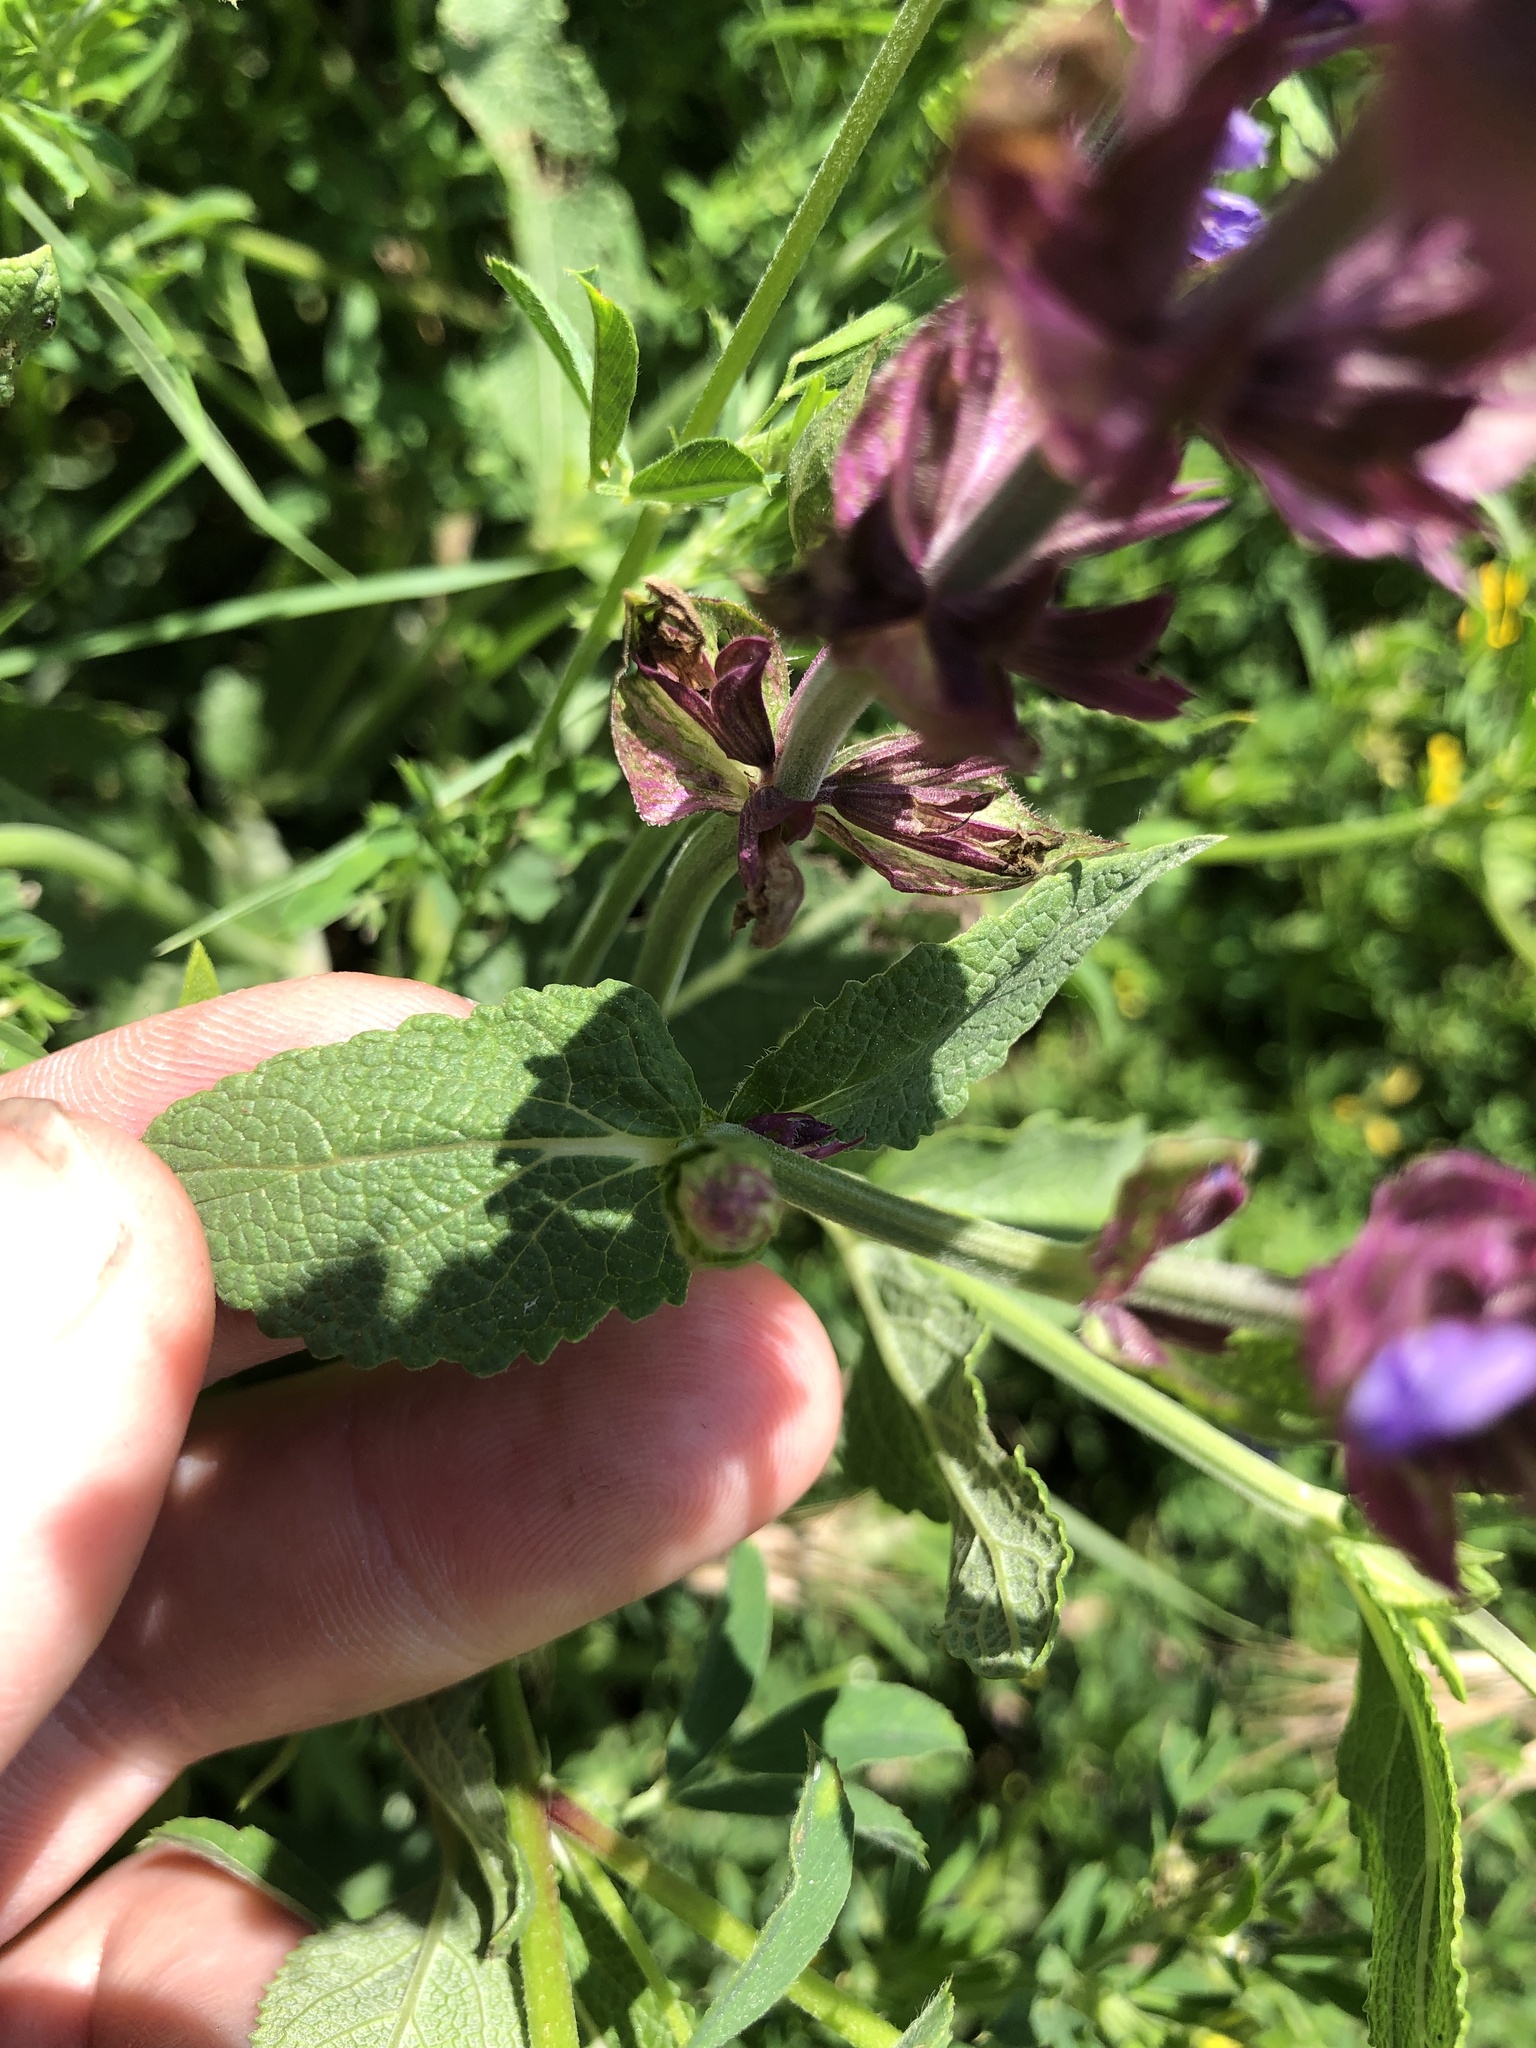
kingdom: Plantae
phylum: Tracheophyta
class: Magnoliopsida
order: Lamiales
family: Lamiaceae
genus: Salvia
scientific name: Salvia nemorosa
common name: Balkan clary
